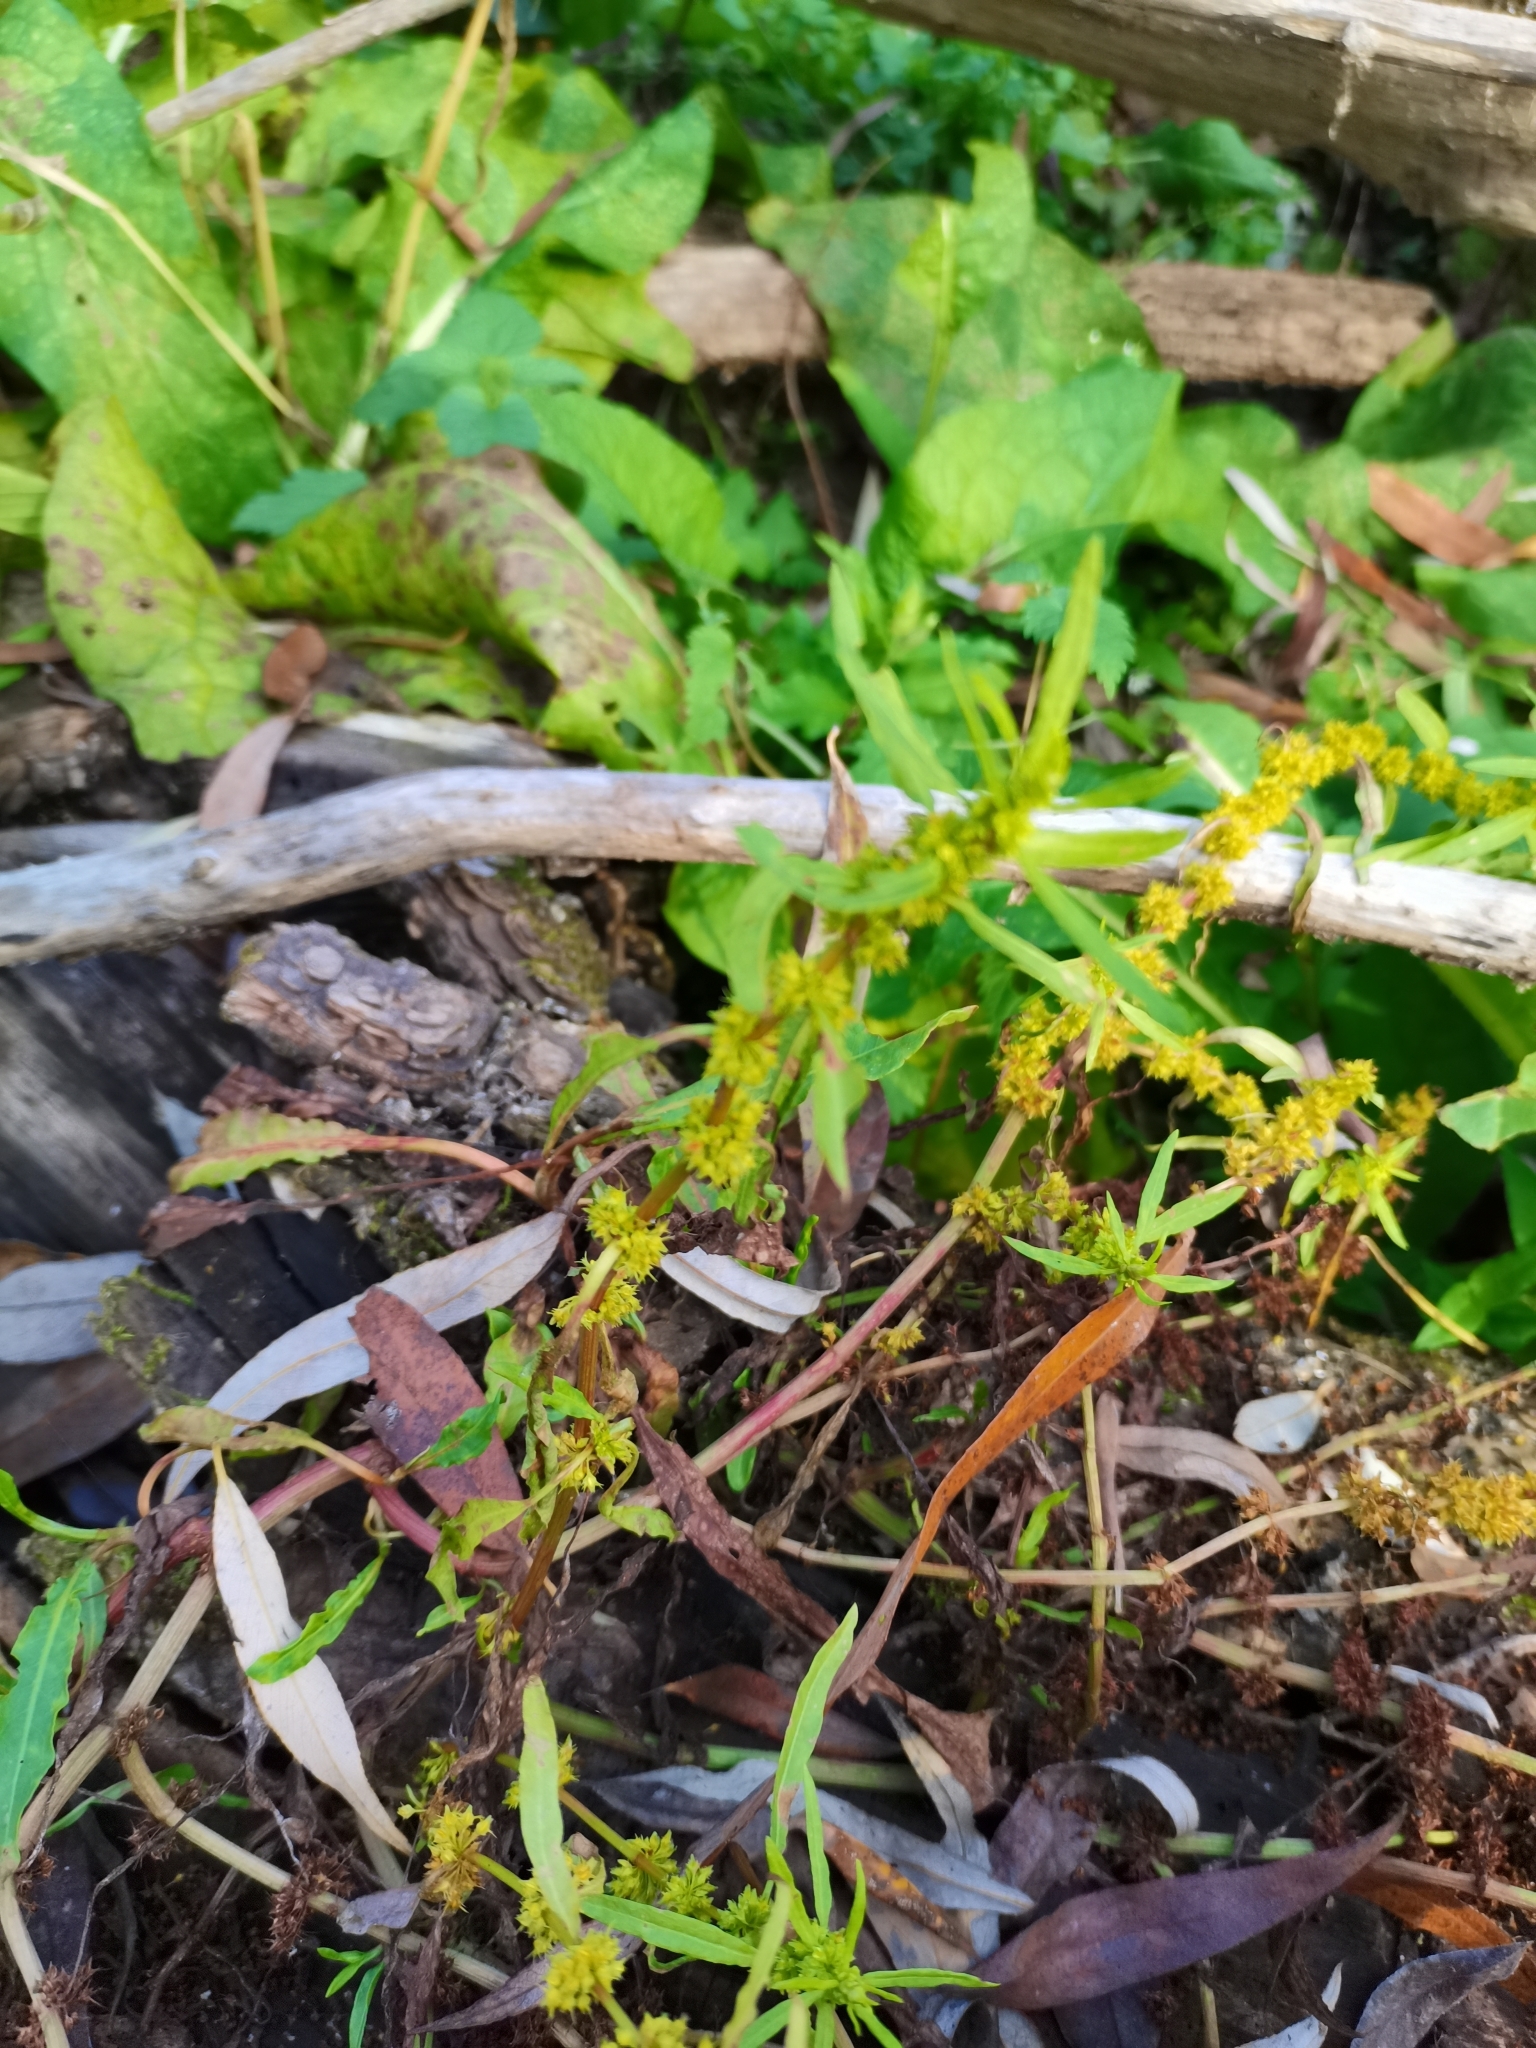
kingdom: Plantae
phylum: Tracheophyta
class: Magnoliopsida
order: Caryophyllales
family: Polygonaceae
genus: Rumex
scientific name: Rumex palustris
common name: Marsh dock
